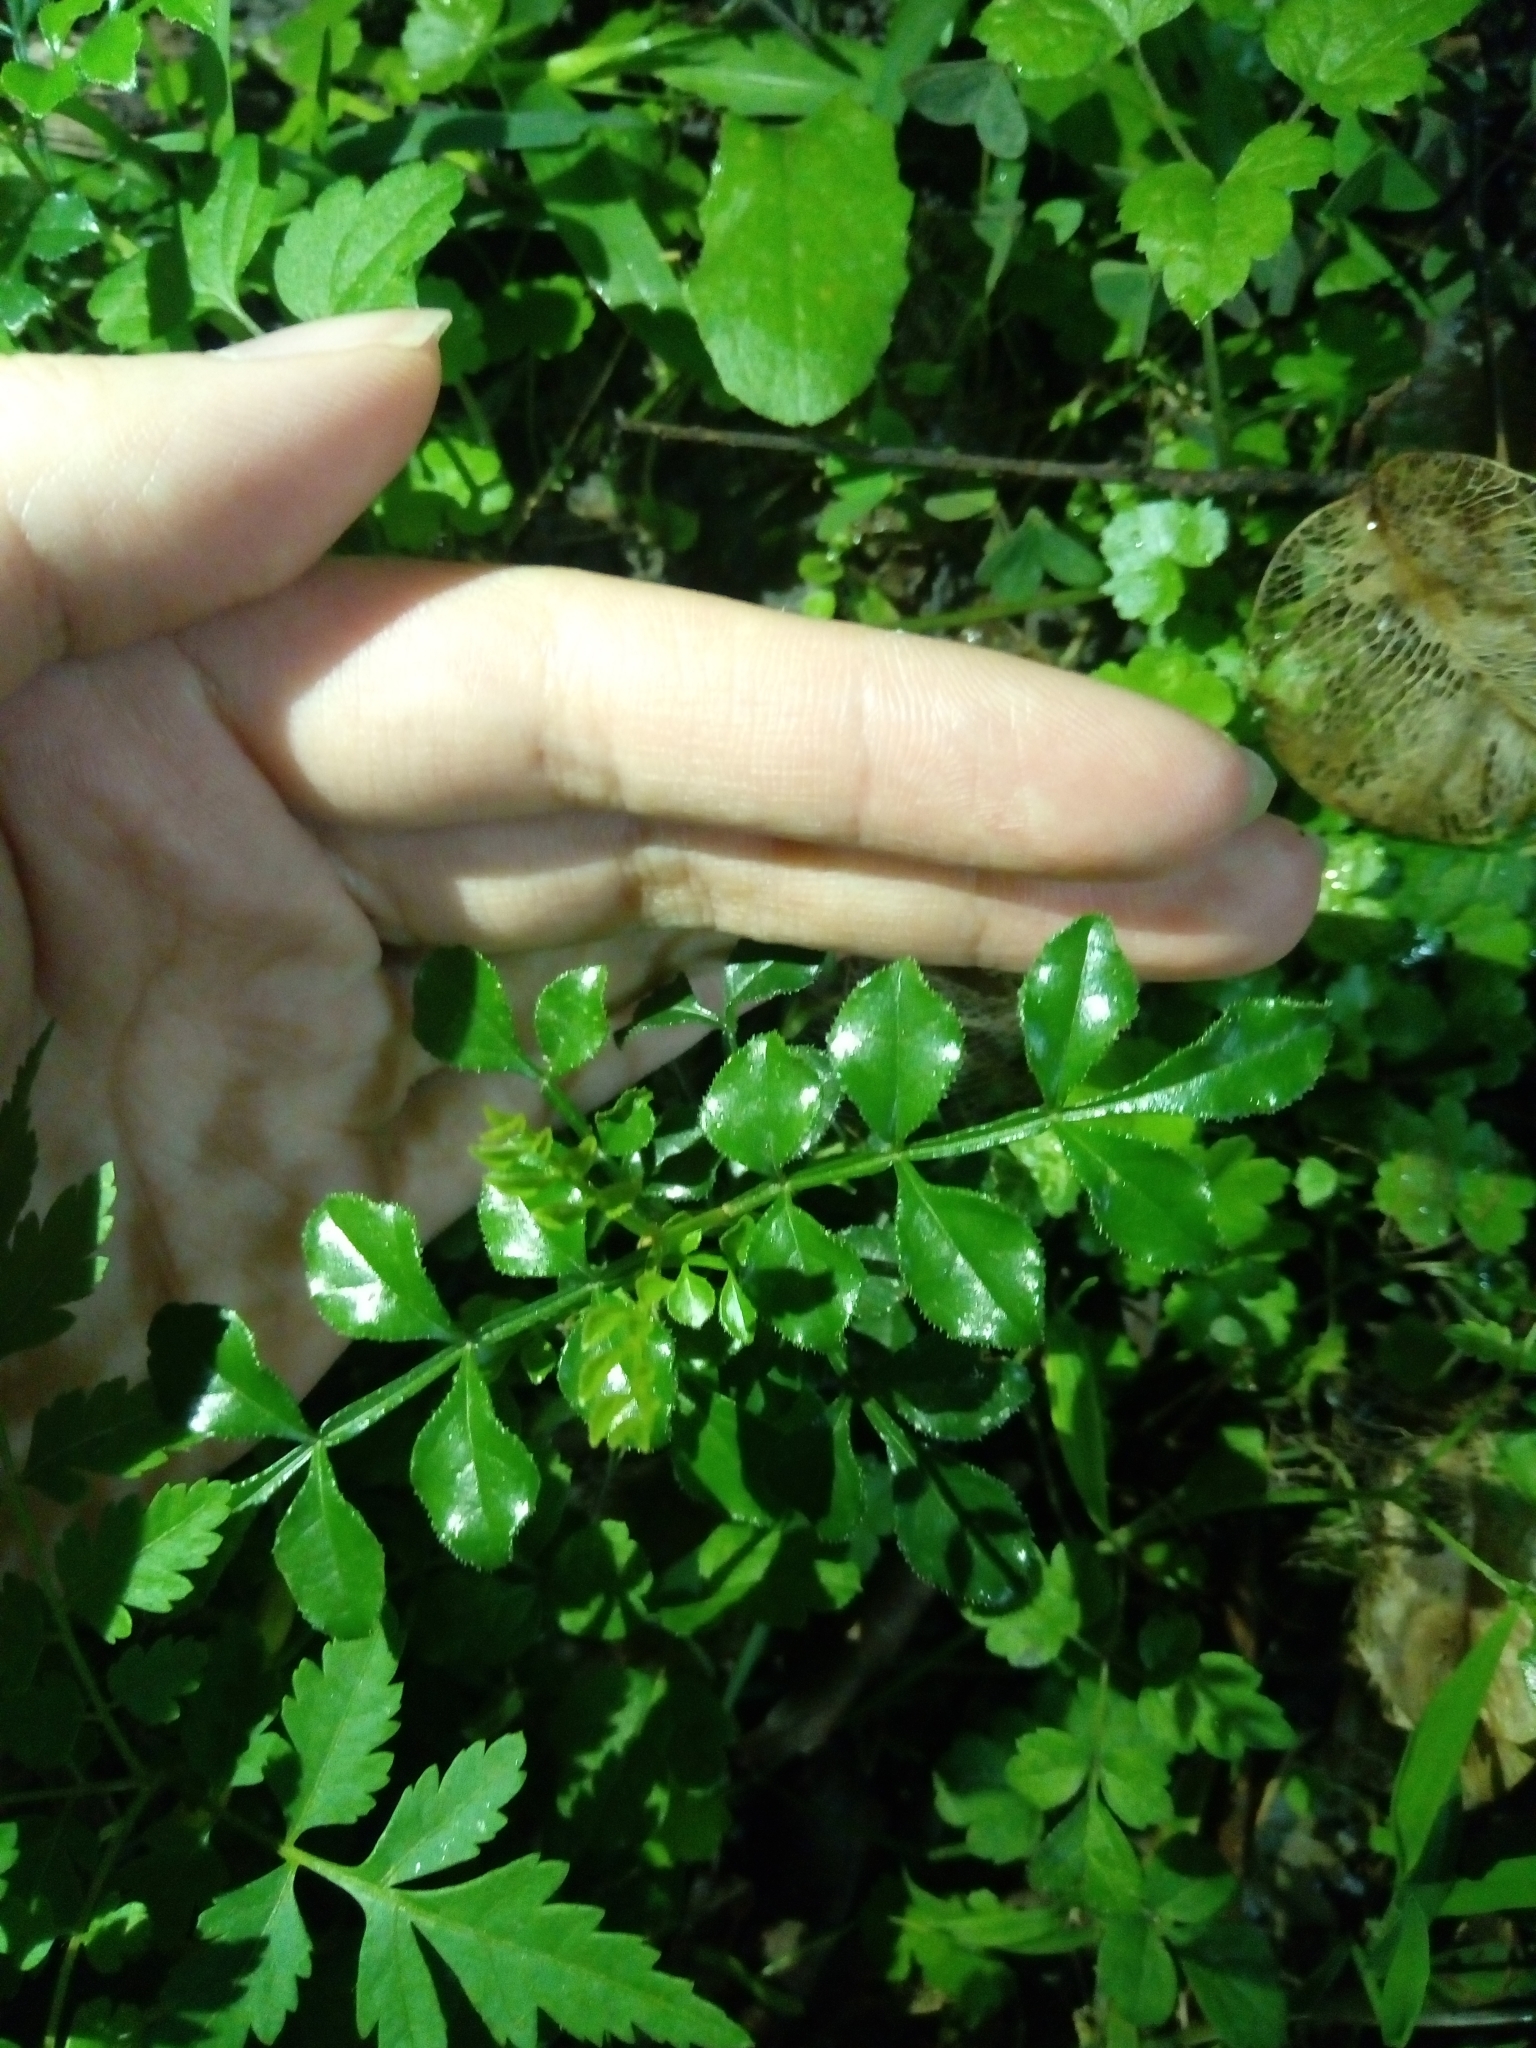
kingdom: Plantae
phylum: Tracheophyta
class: Magnoliopsida
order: Lamiales
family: Oleaceae
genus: Fraxinus
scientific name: Fraxinus griffithii
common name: Himalayan ash
